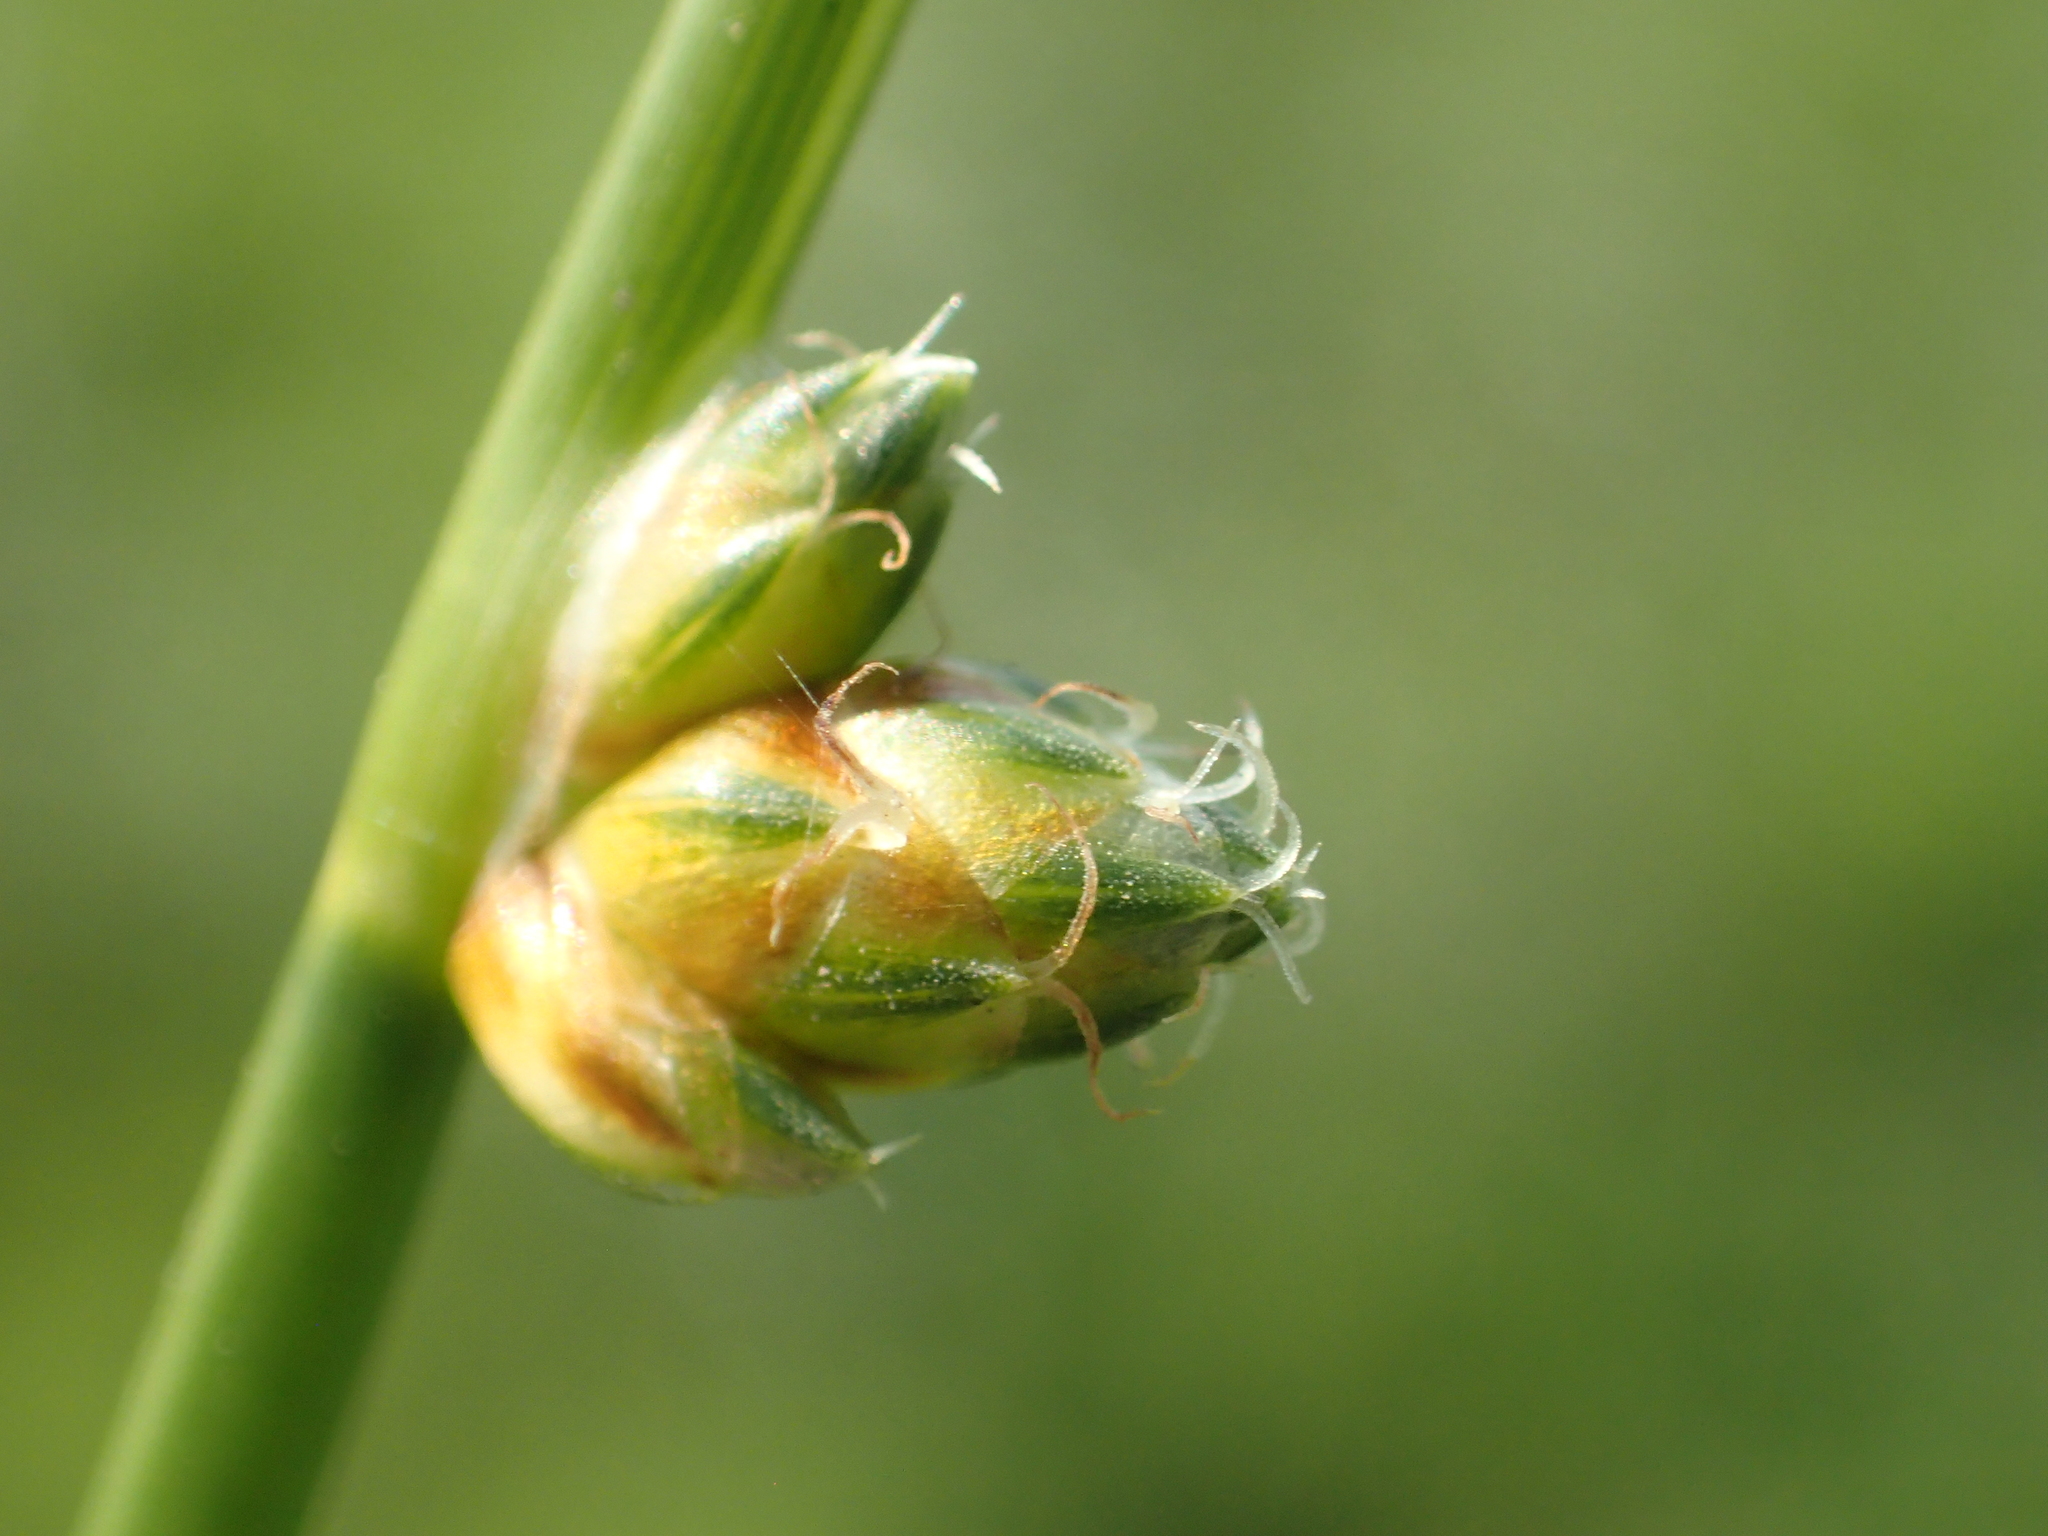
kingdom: Plantae
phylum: Tracheophyta
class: Liliopsida
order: Poales
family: Cyperaceae
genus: Schoenoplectiella
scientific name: Schoenoplectiella juncoides
